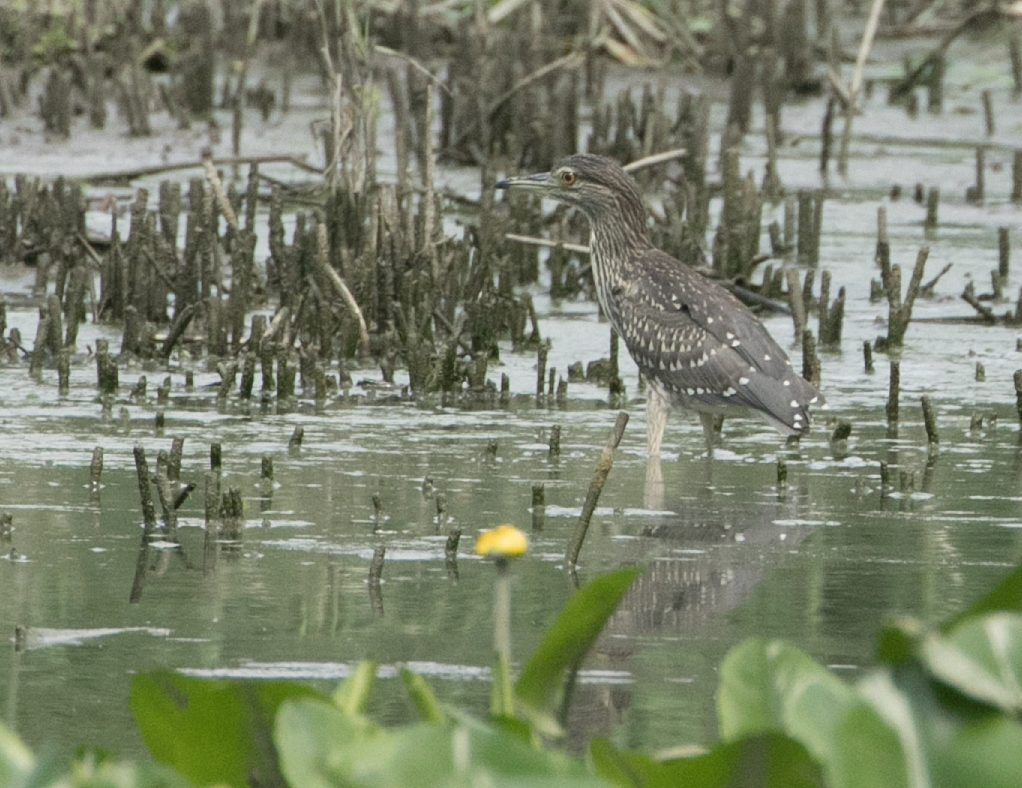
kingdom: Animalia
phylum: Chordata
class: Aves
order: Pelecaniformes
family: Ardeidae
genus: Nycticorax
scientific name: Nycticorax nycticorax
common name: Black-crowned night heron
